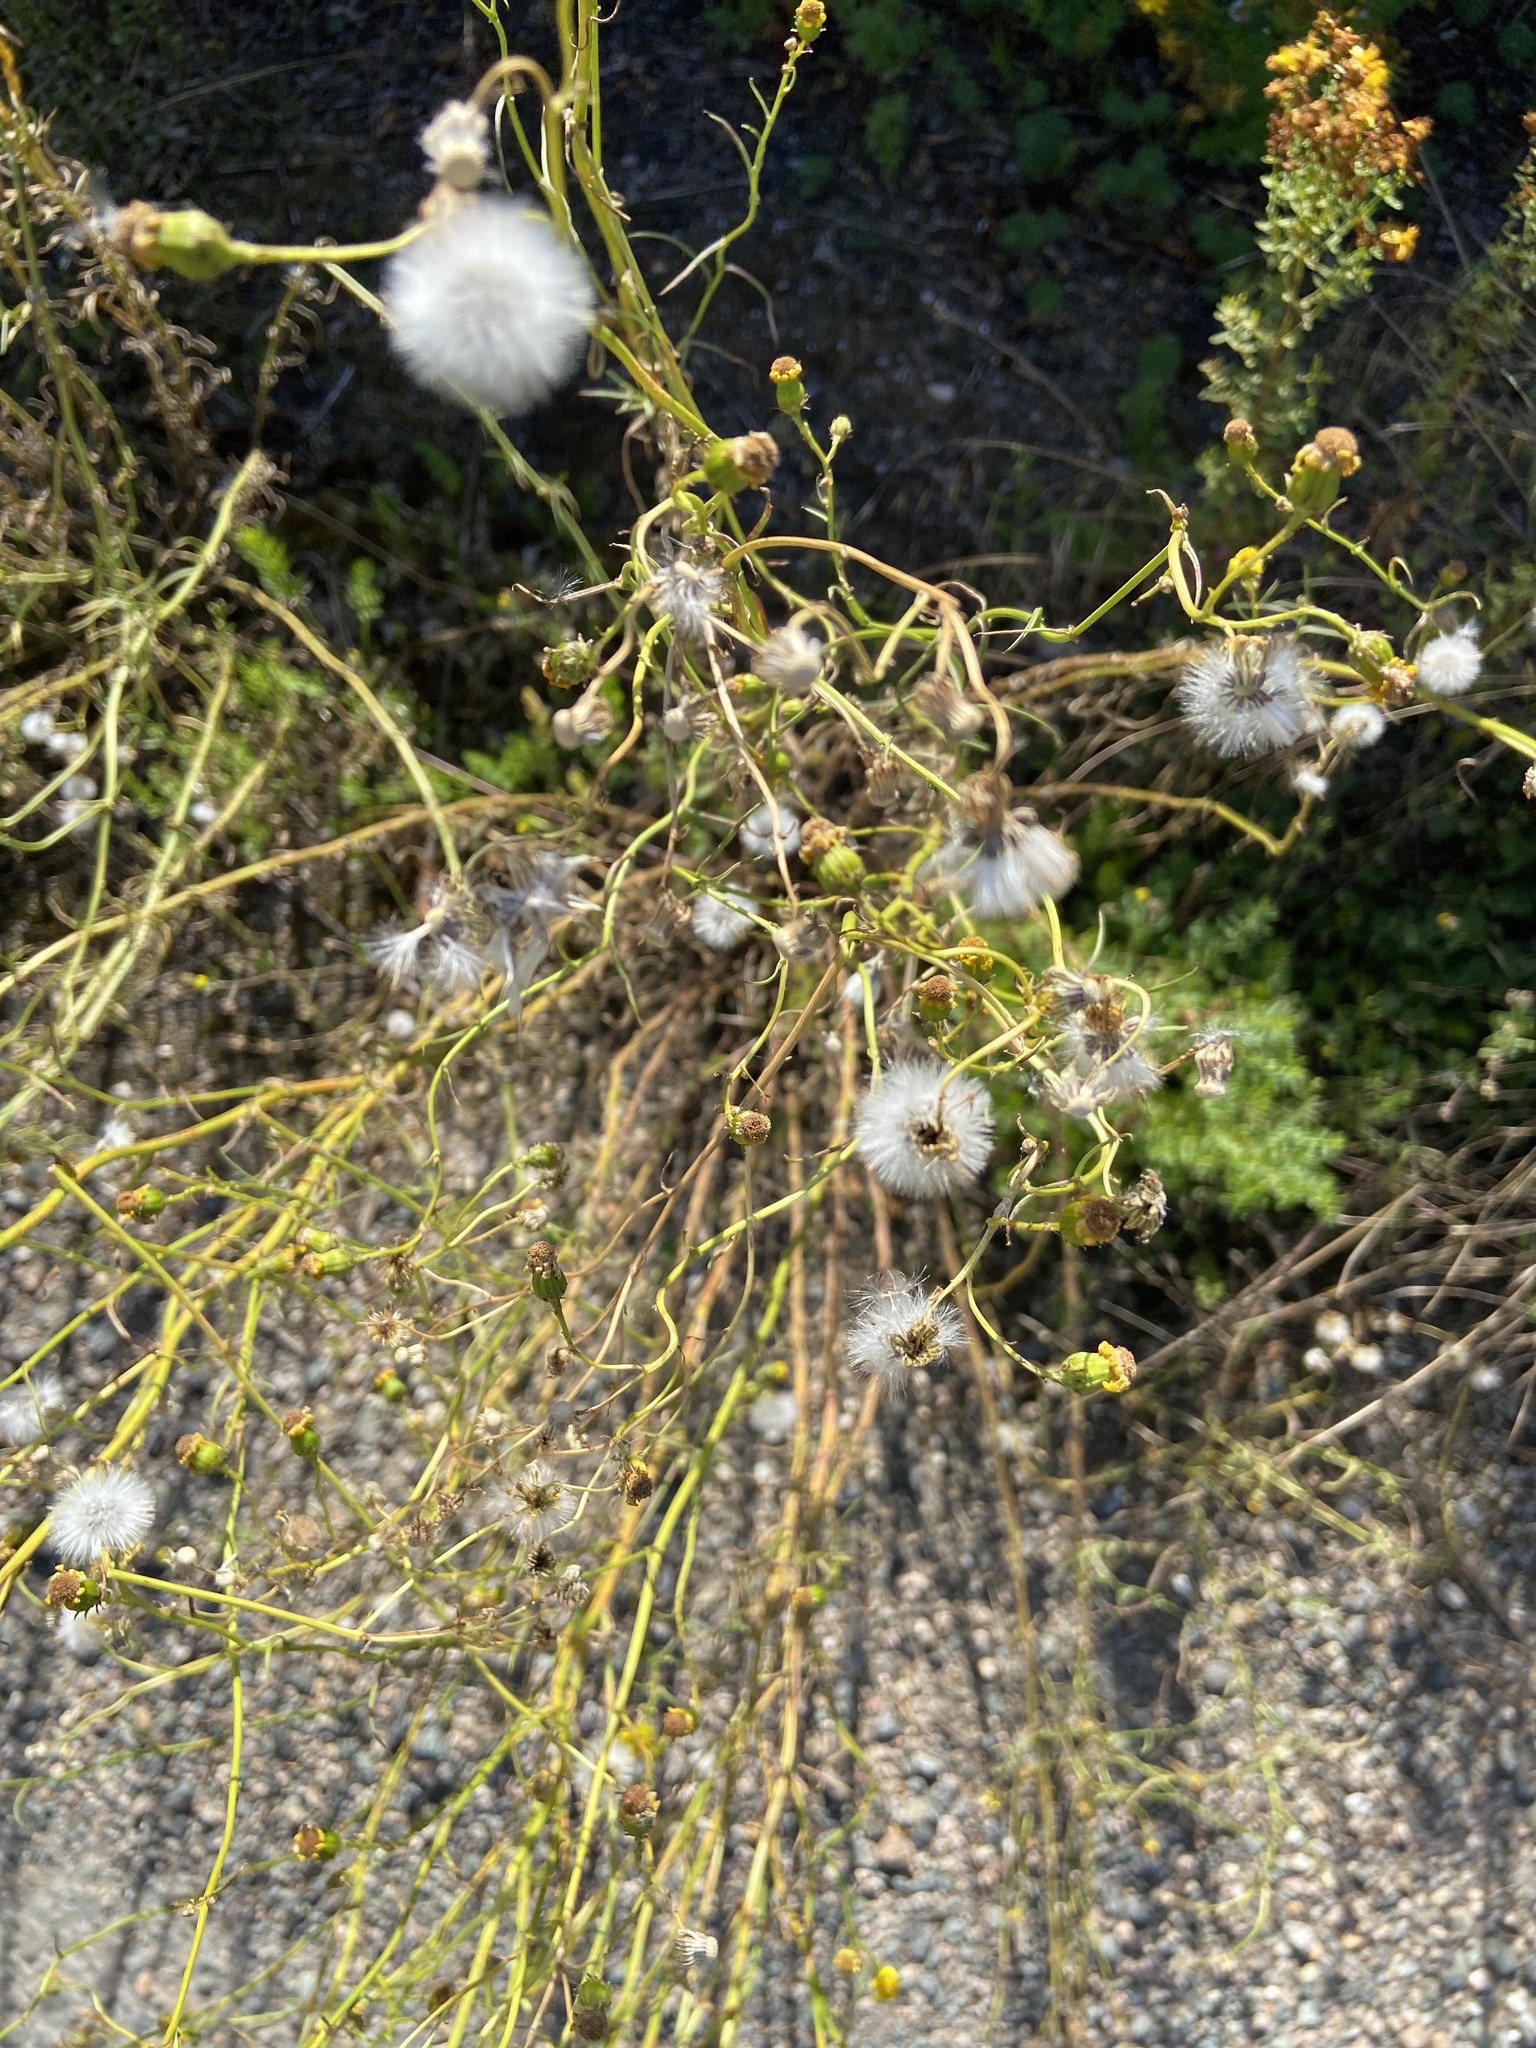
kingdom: Plantae
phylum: Tracheophyta
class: Magnoliopsida
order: Asterales
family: Asteraceae
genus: Senecio
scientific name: Senecio inaequidens
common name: Narrow-leaved ragwort
